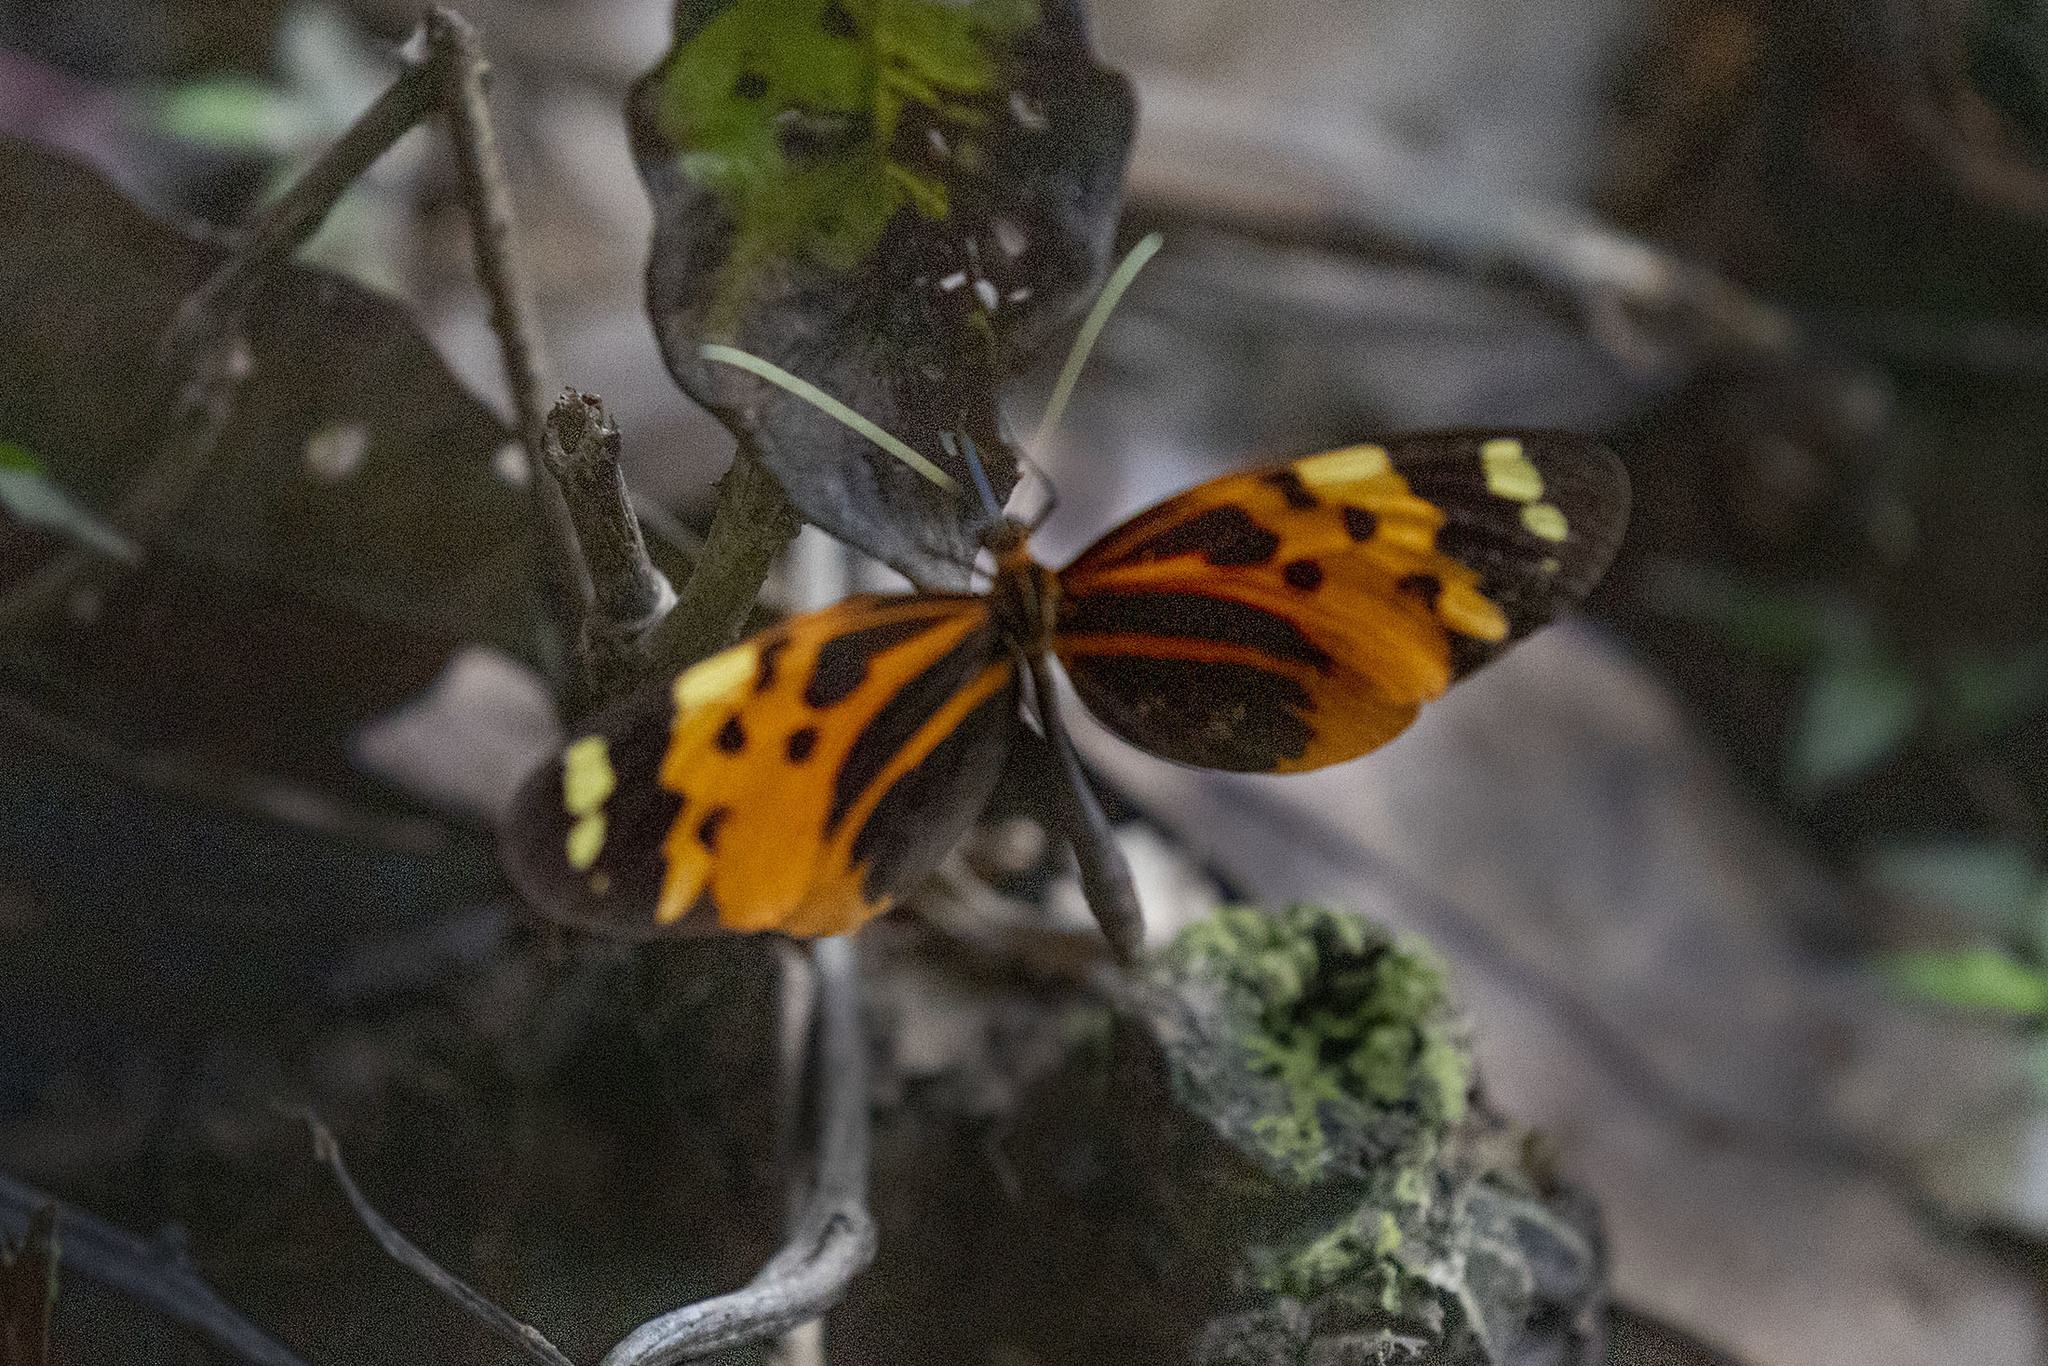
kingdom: Animalia
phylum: Arthropoda
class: Insecta
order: Lepidoptera
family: Nymphalidae
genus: Melinaea
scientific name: Melinaea marsaeus
